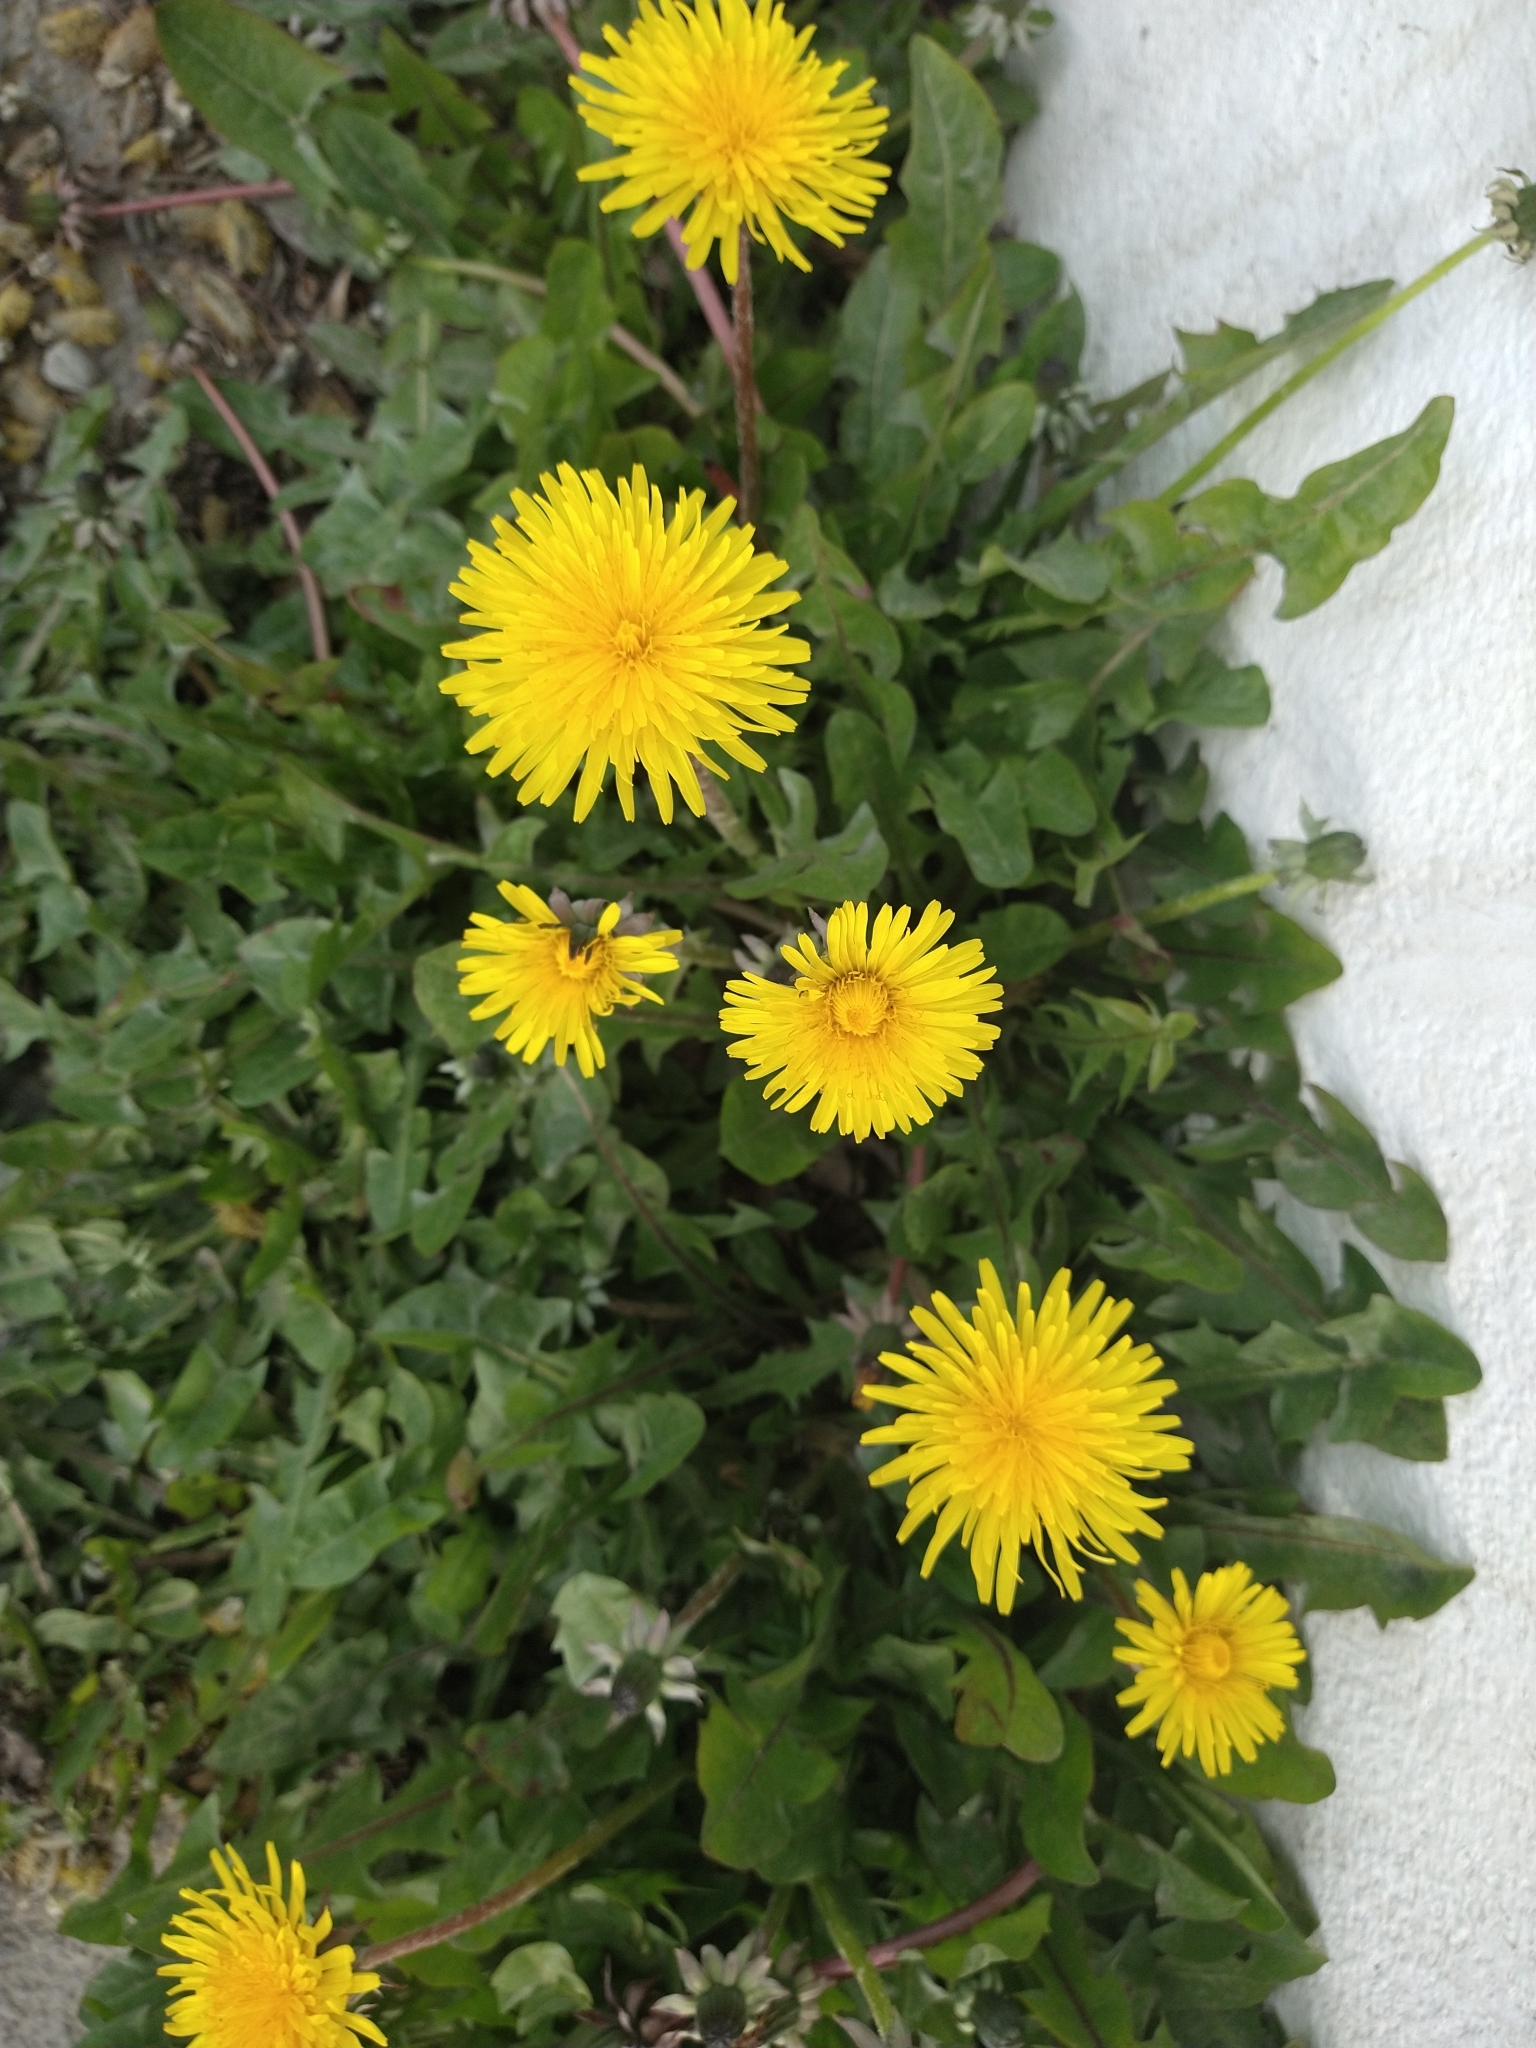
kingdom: Plantae
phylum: Tracheophyta
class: Magnoliopsida
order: Asterales
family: Asteraceae
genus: Taraxacum
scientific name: Taraxacum officinale
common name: Common dandelion
